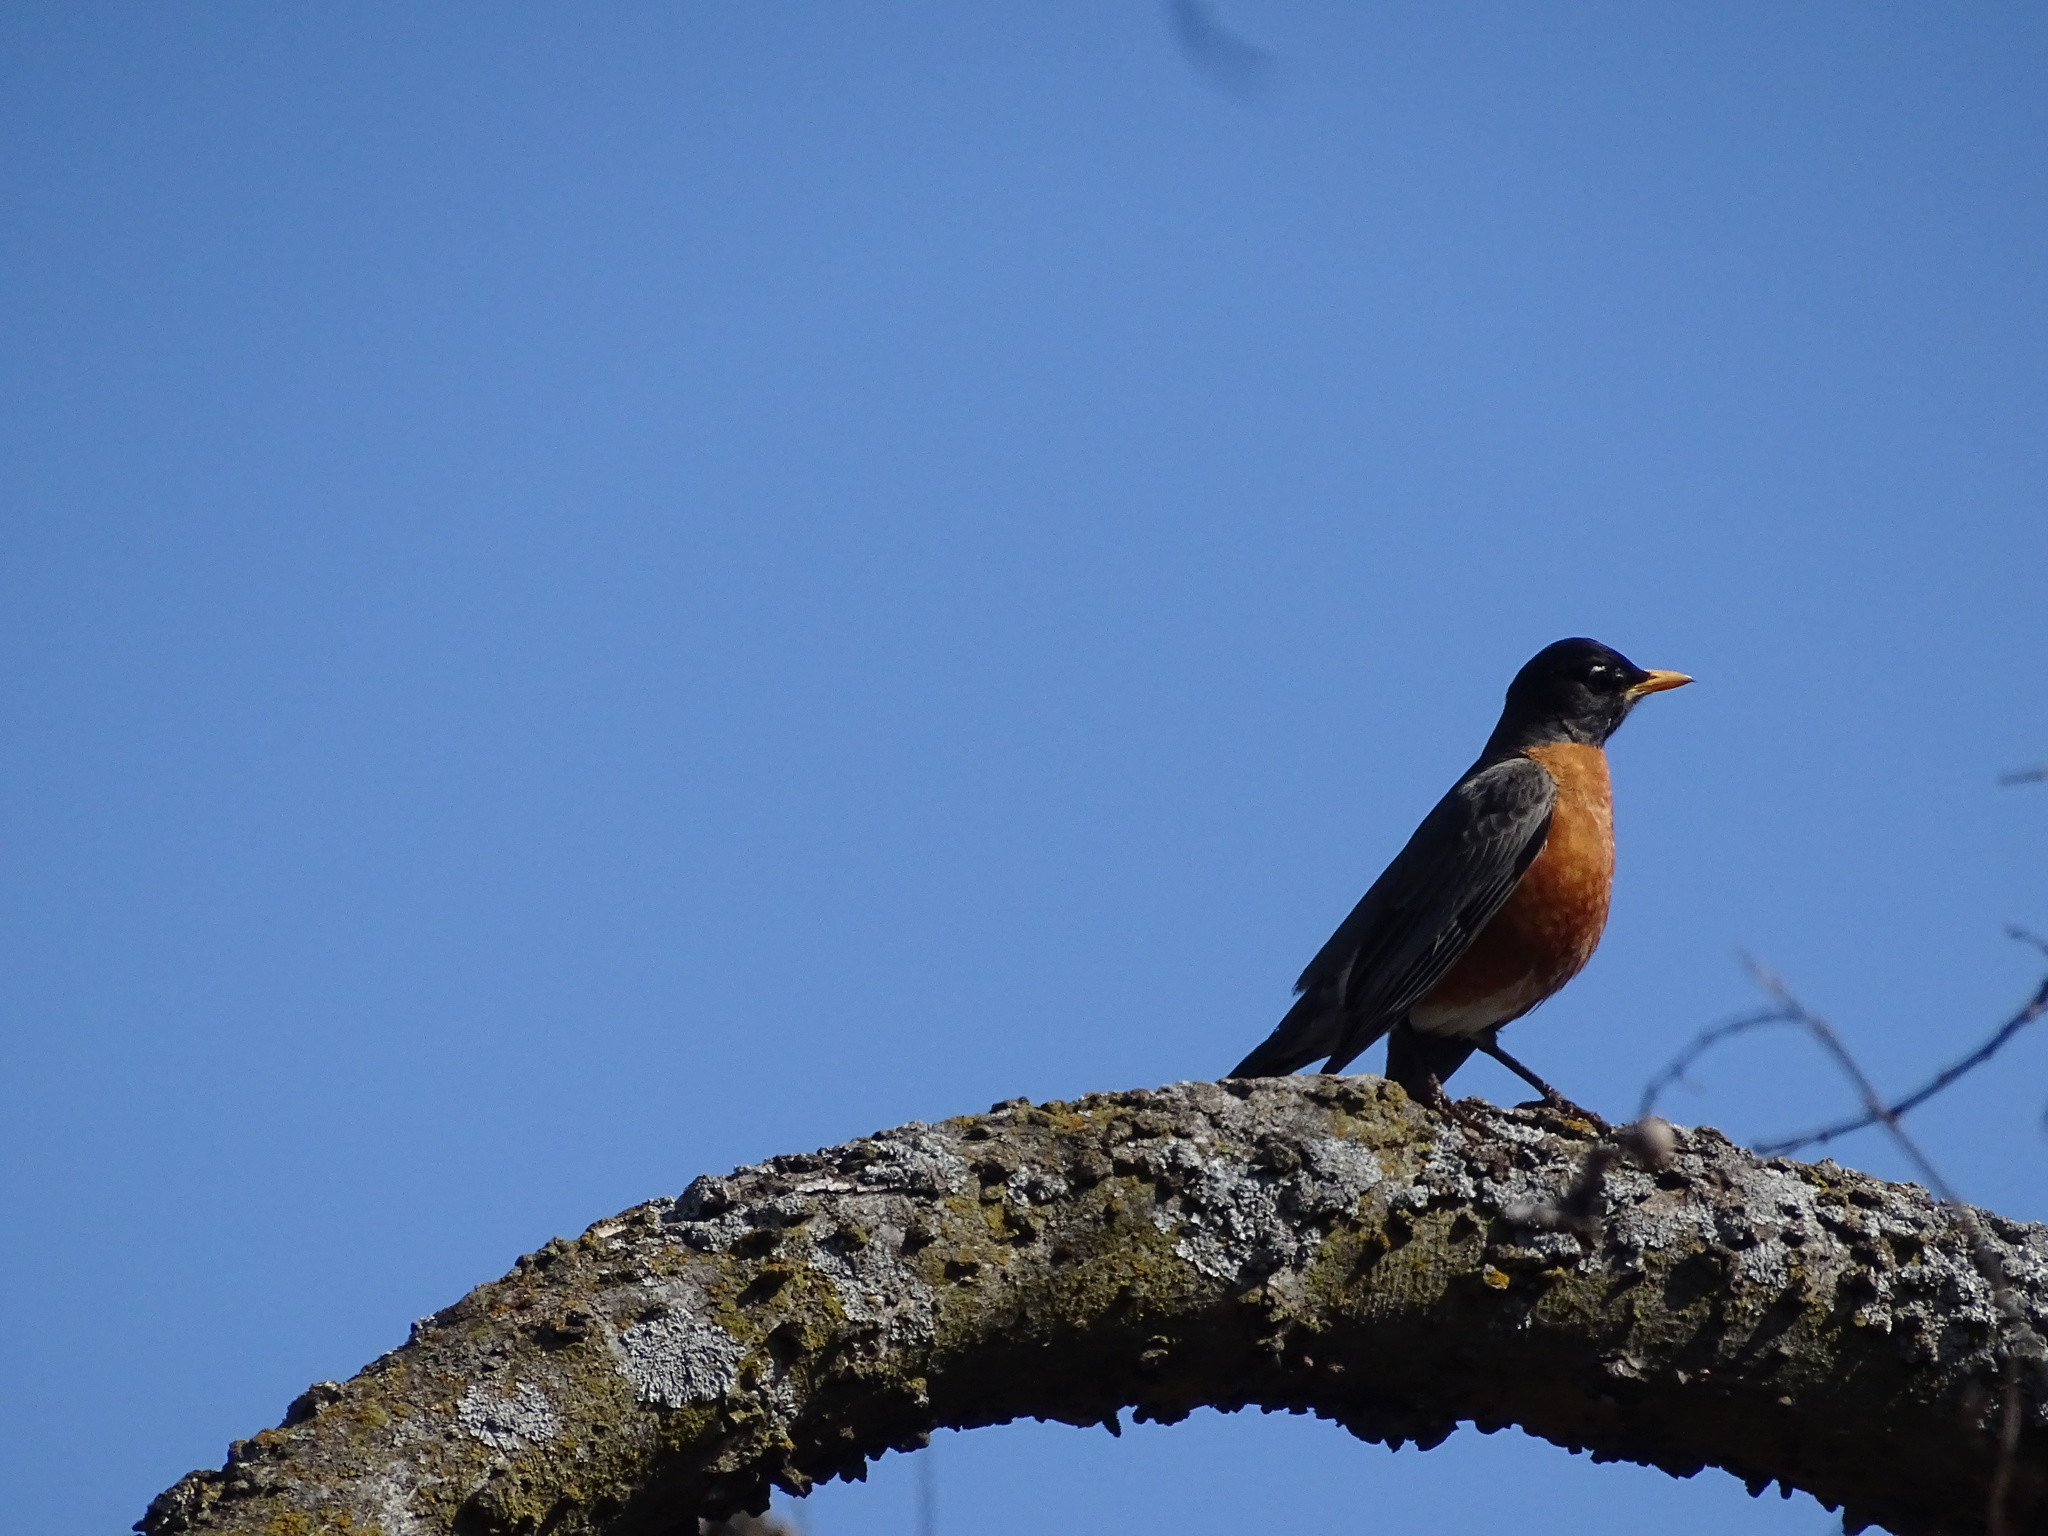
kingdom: Animalia
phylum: Chordata
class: Aves
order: Passeriformes
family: Turdidae
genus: Turdus
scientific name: Turdus migratorius
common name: American robin
